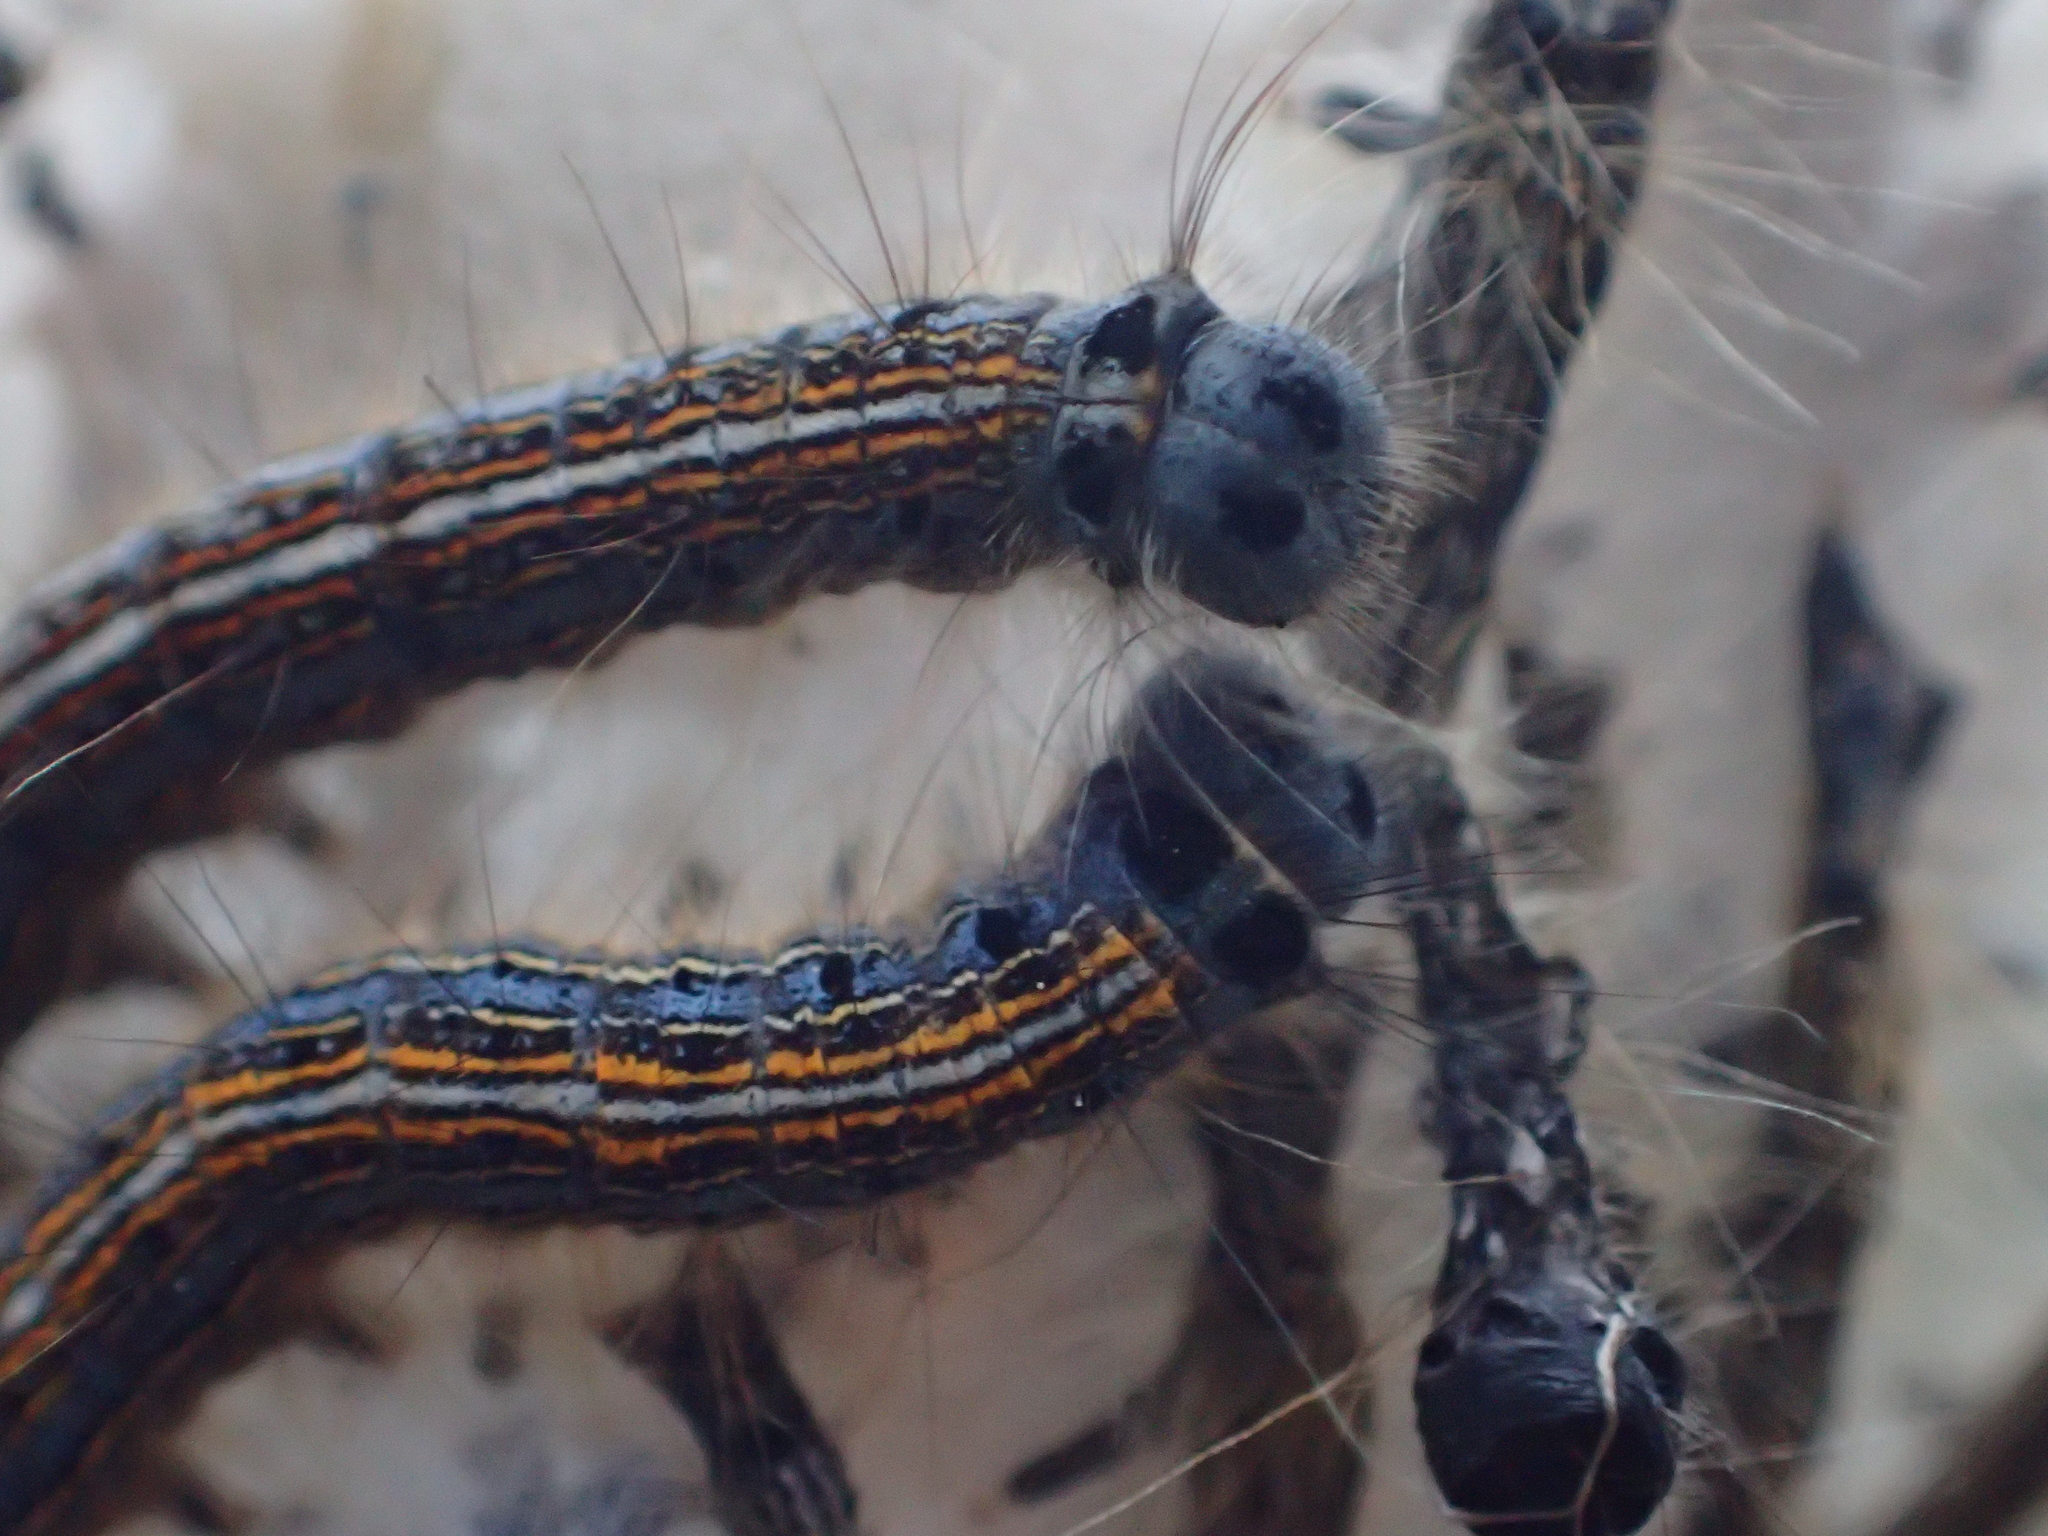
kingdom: Animalia
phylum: Arthropoda
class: Insecta
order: Lepidoptera
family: Lasiocampidae
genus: Malacosoma
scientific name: Malacosoma neustria
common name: The lackey
